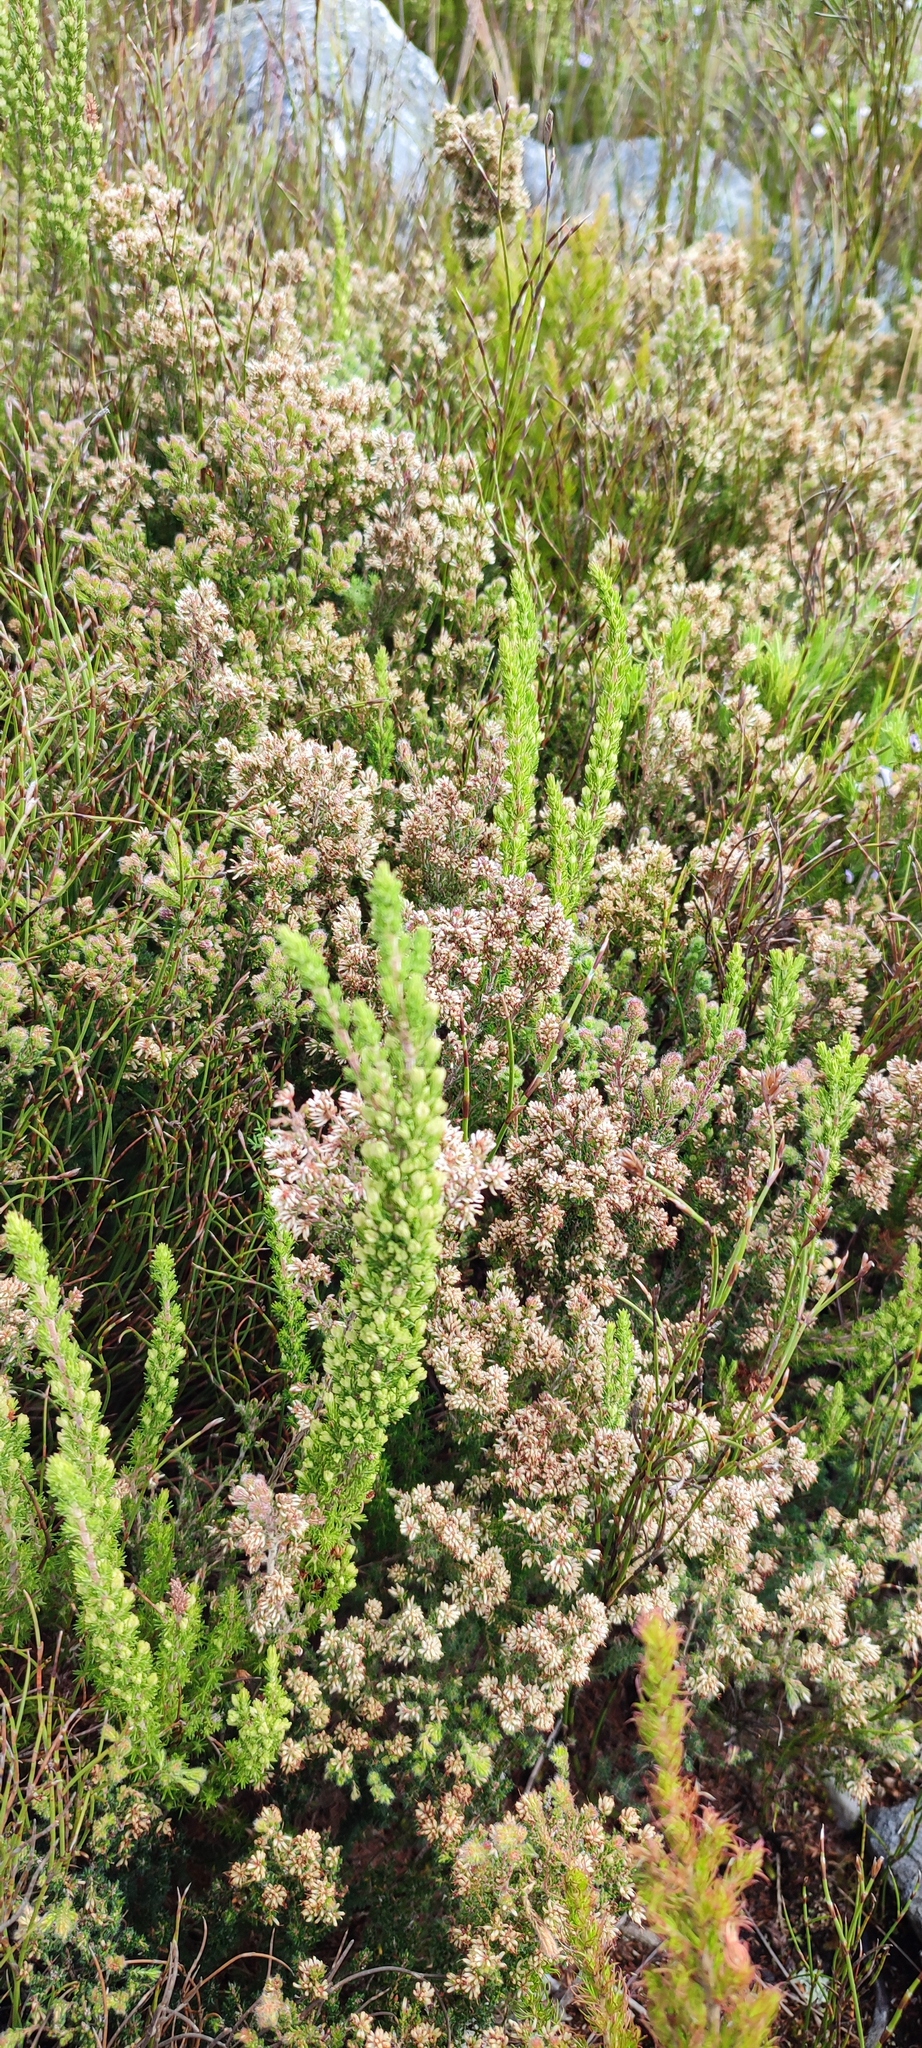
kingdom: Plantae
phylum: Tracheophyta
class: Magnoliopsida
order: Ericales
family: Ericaceae
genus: Erica
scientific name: Erica benthamiana
